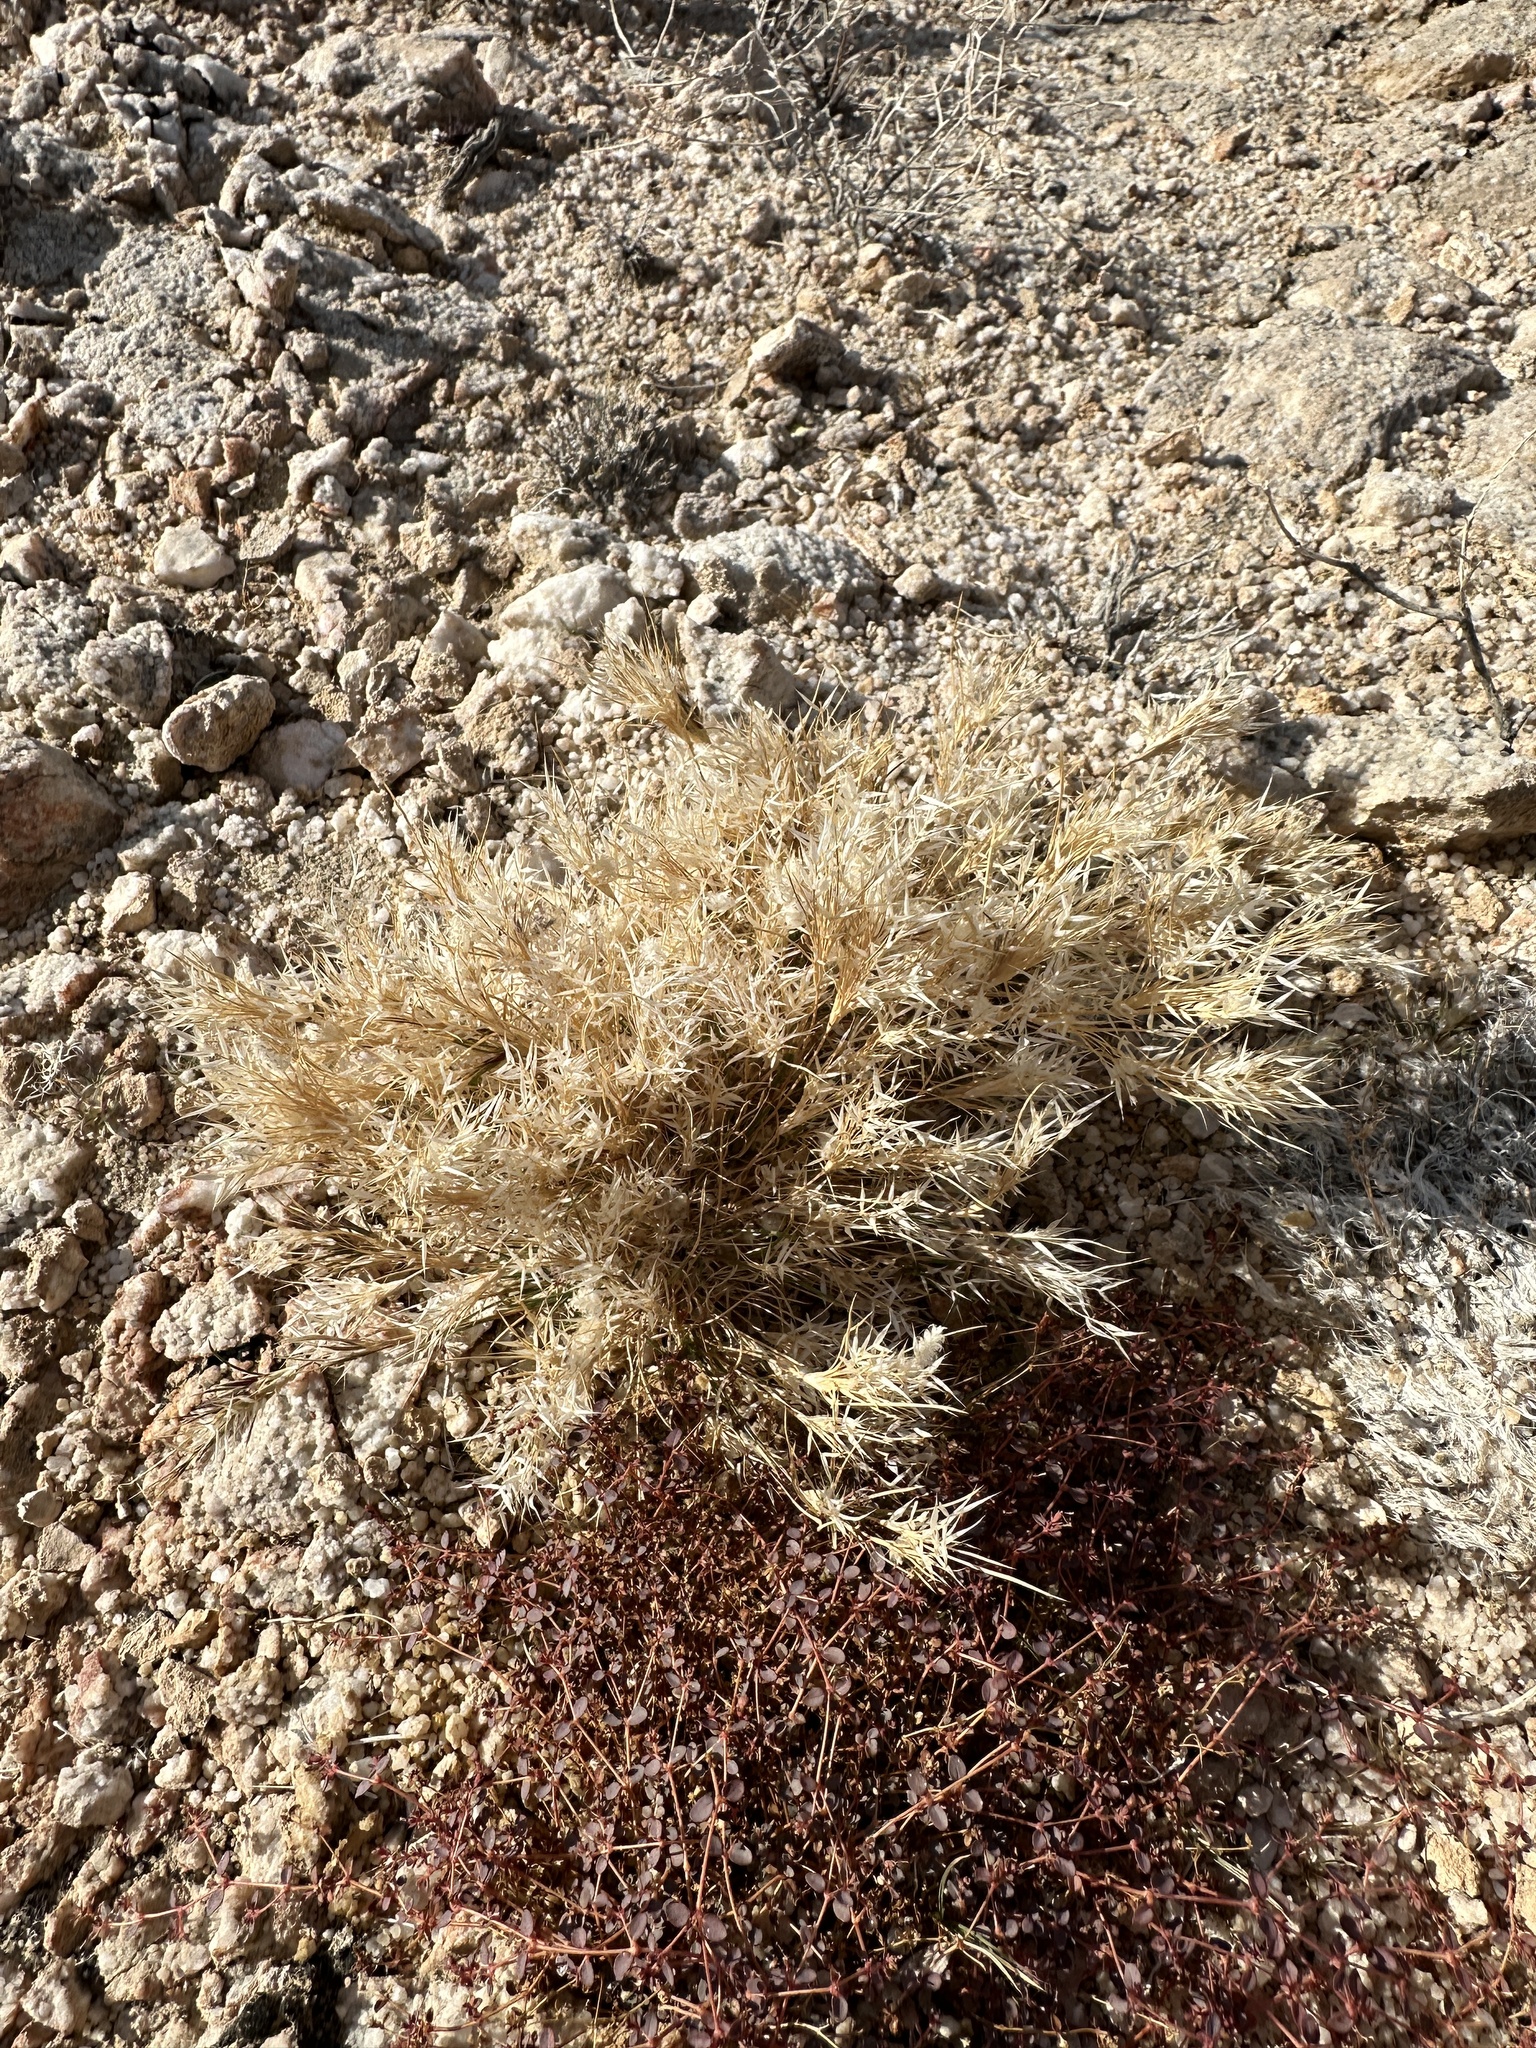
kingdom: Plantae
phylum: Tracheophyta
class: Liliopsida
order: Poales
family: Poaceae
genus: Dasyochloa
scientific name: Dasyochloa pulchella
